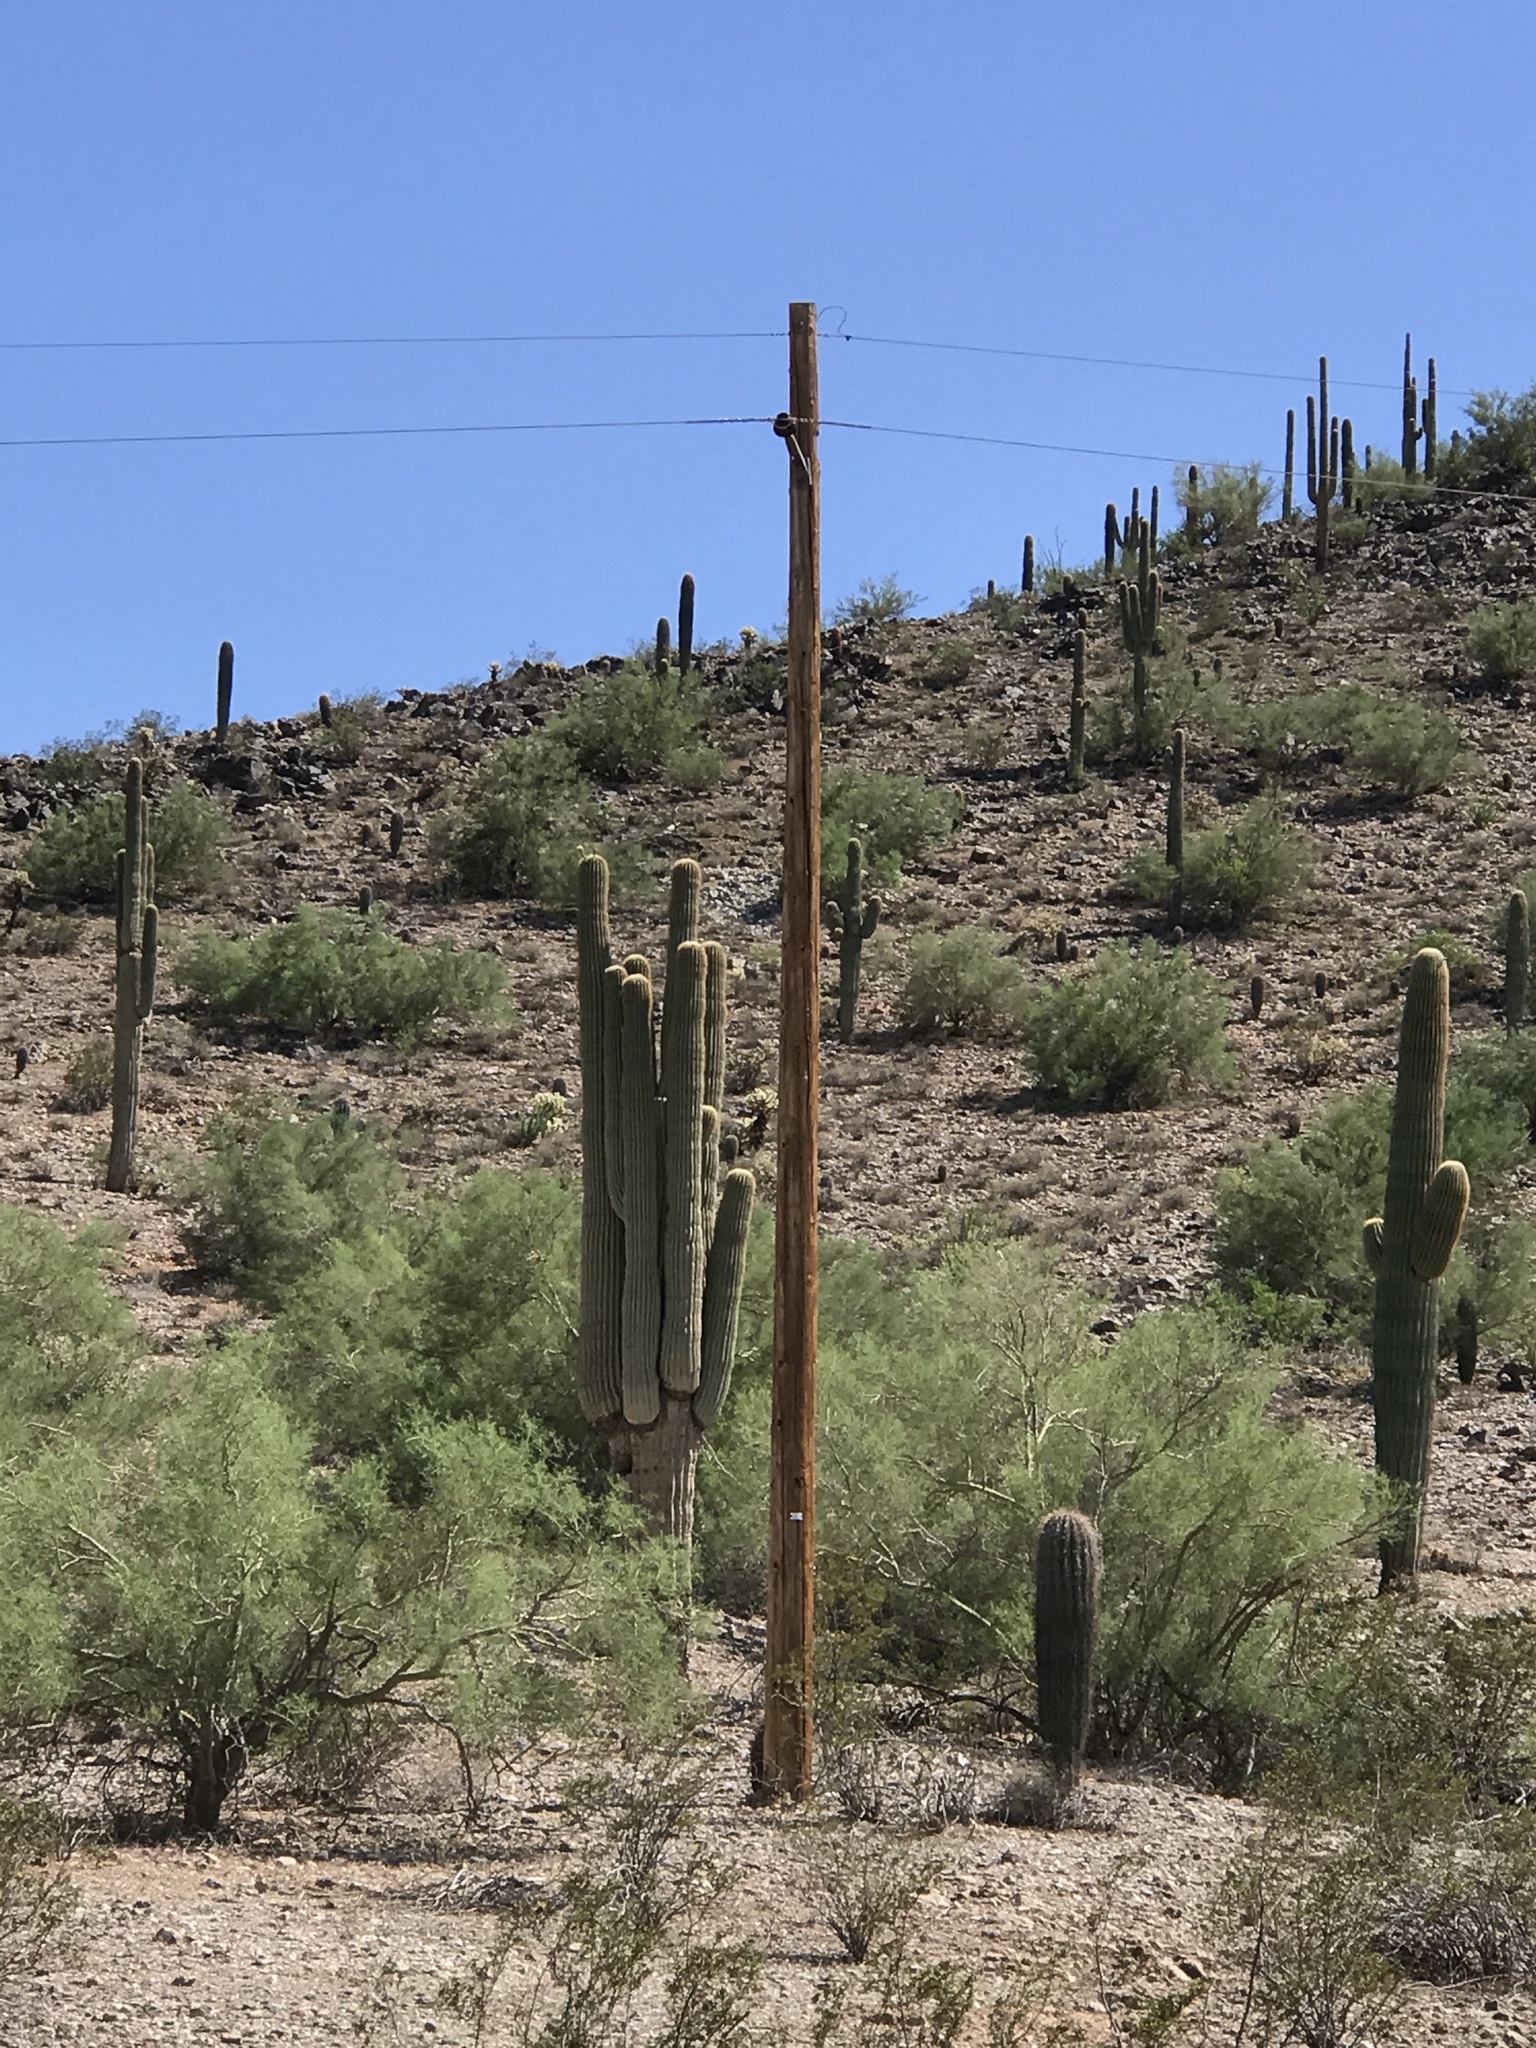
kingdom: Plantae
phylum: Tracheophyta
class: Magnoliopsida
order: Caryophyllales
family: Cactaceae
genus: Carnegiea
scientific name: Carnegiea gigantea
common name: Saguaro
